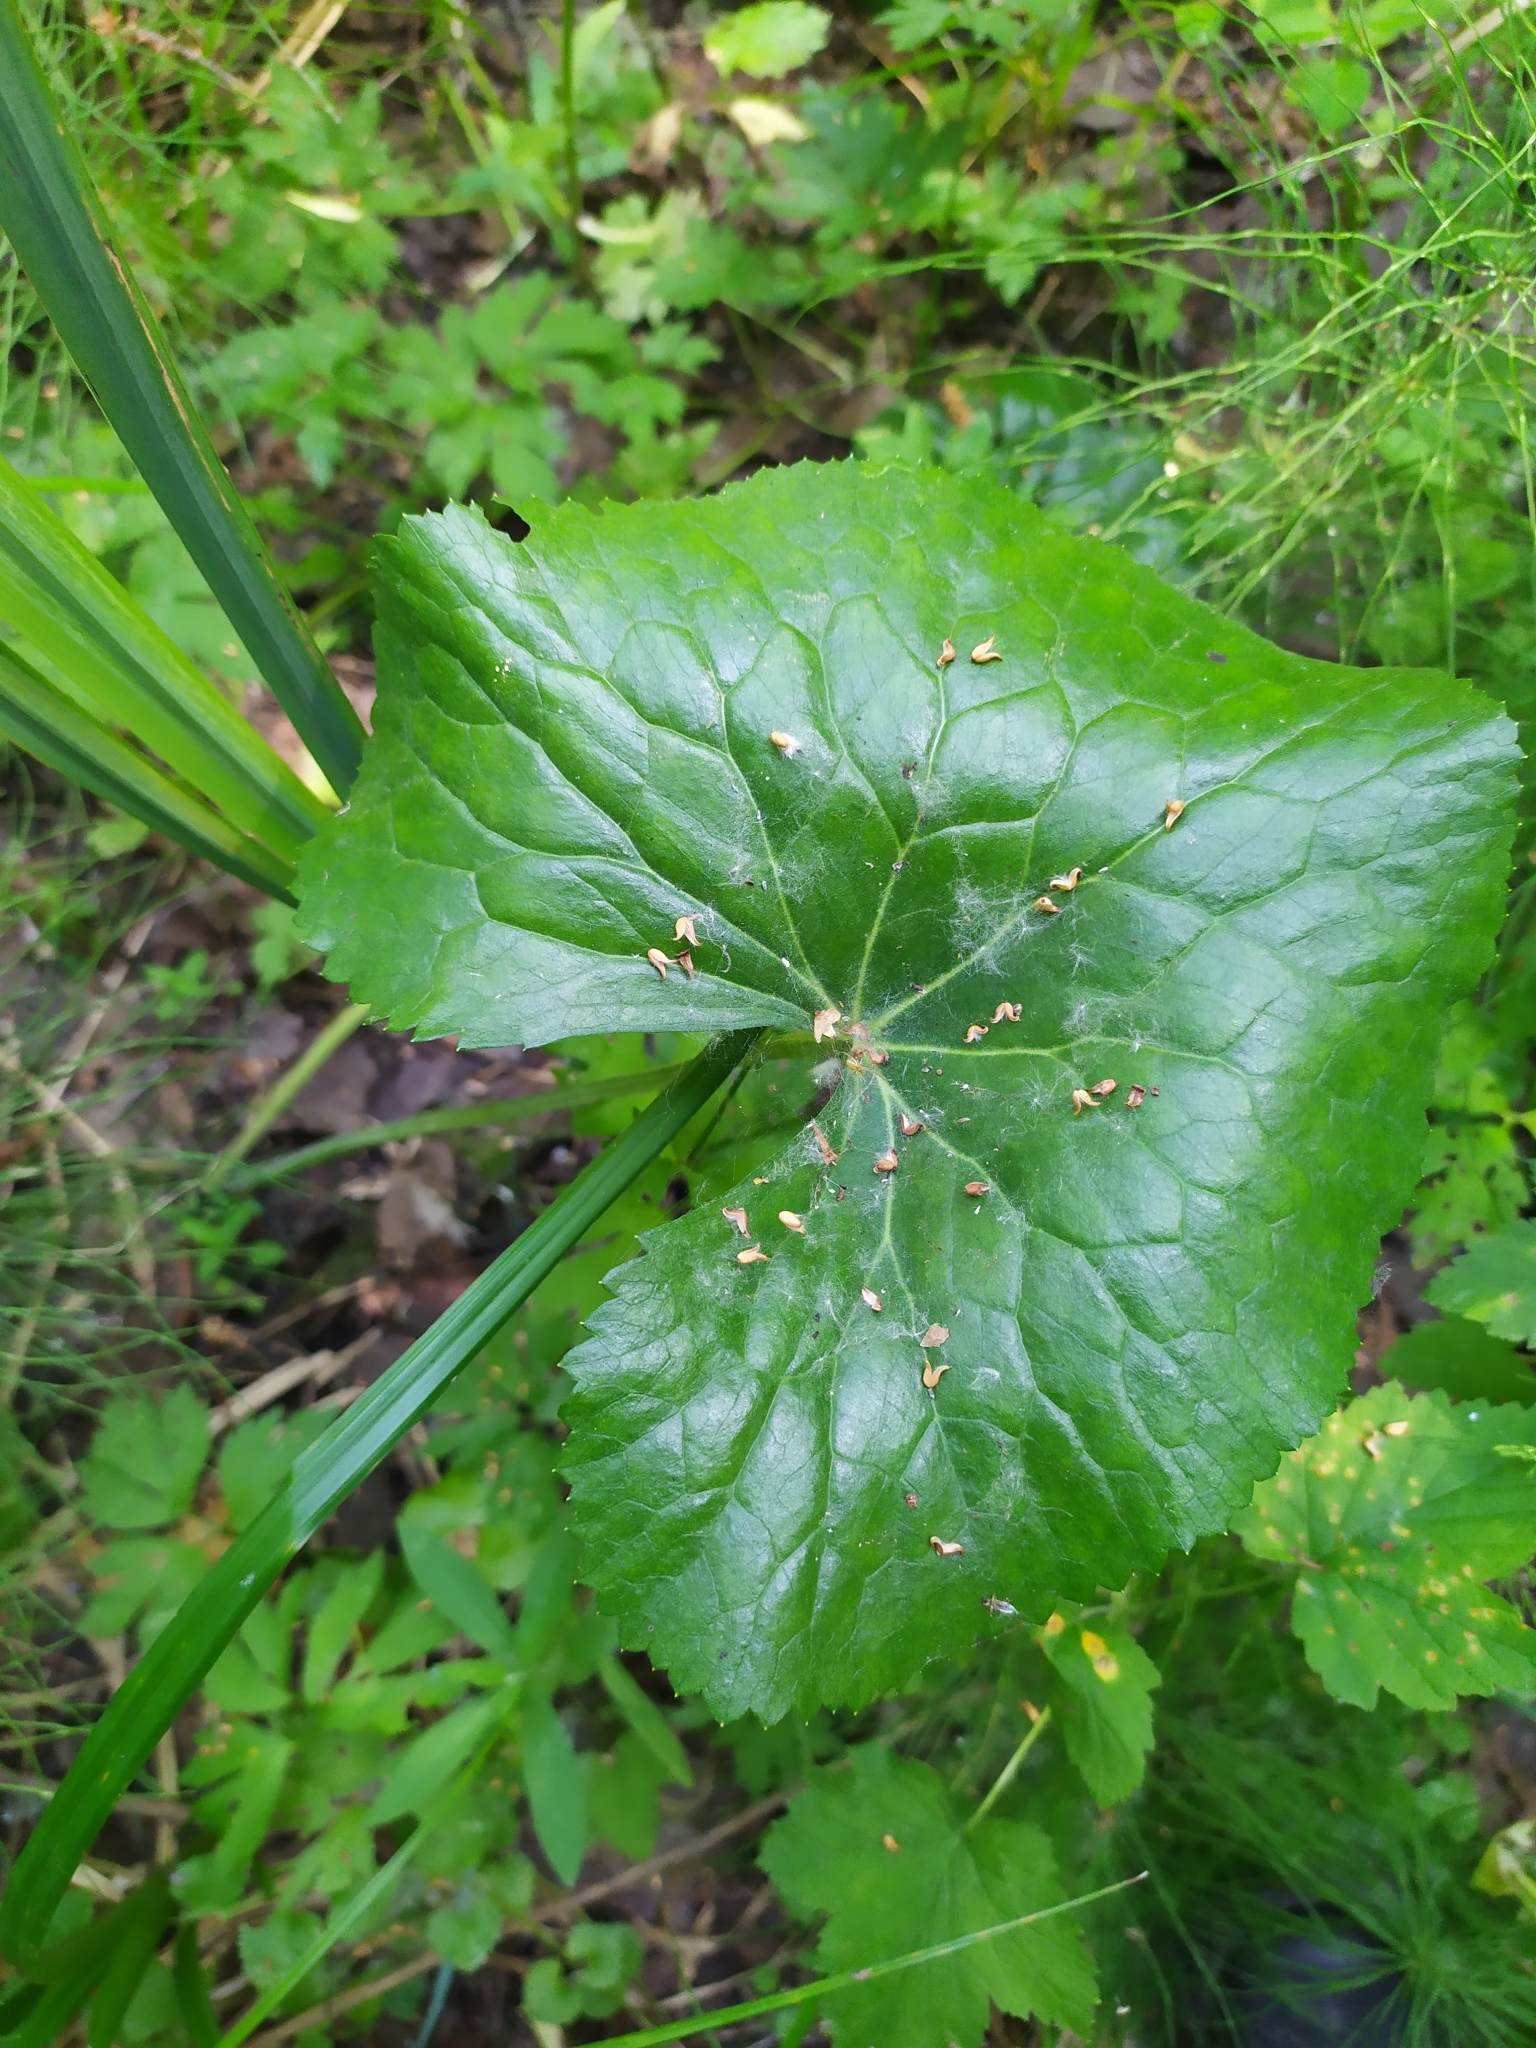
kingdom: Plantae
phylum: Tracheophyta
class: Magnoliopsida
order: Ranunculales
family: Ranunculaceae
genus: Caltha
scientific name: Caltha palustris
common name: Marsh marigold
